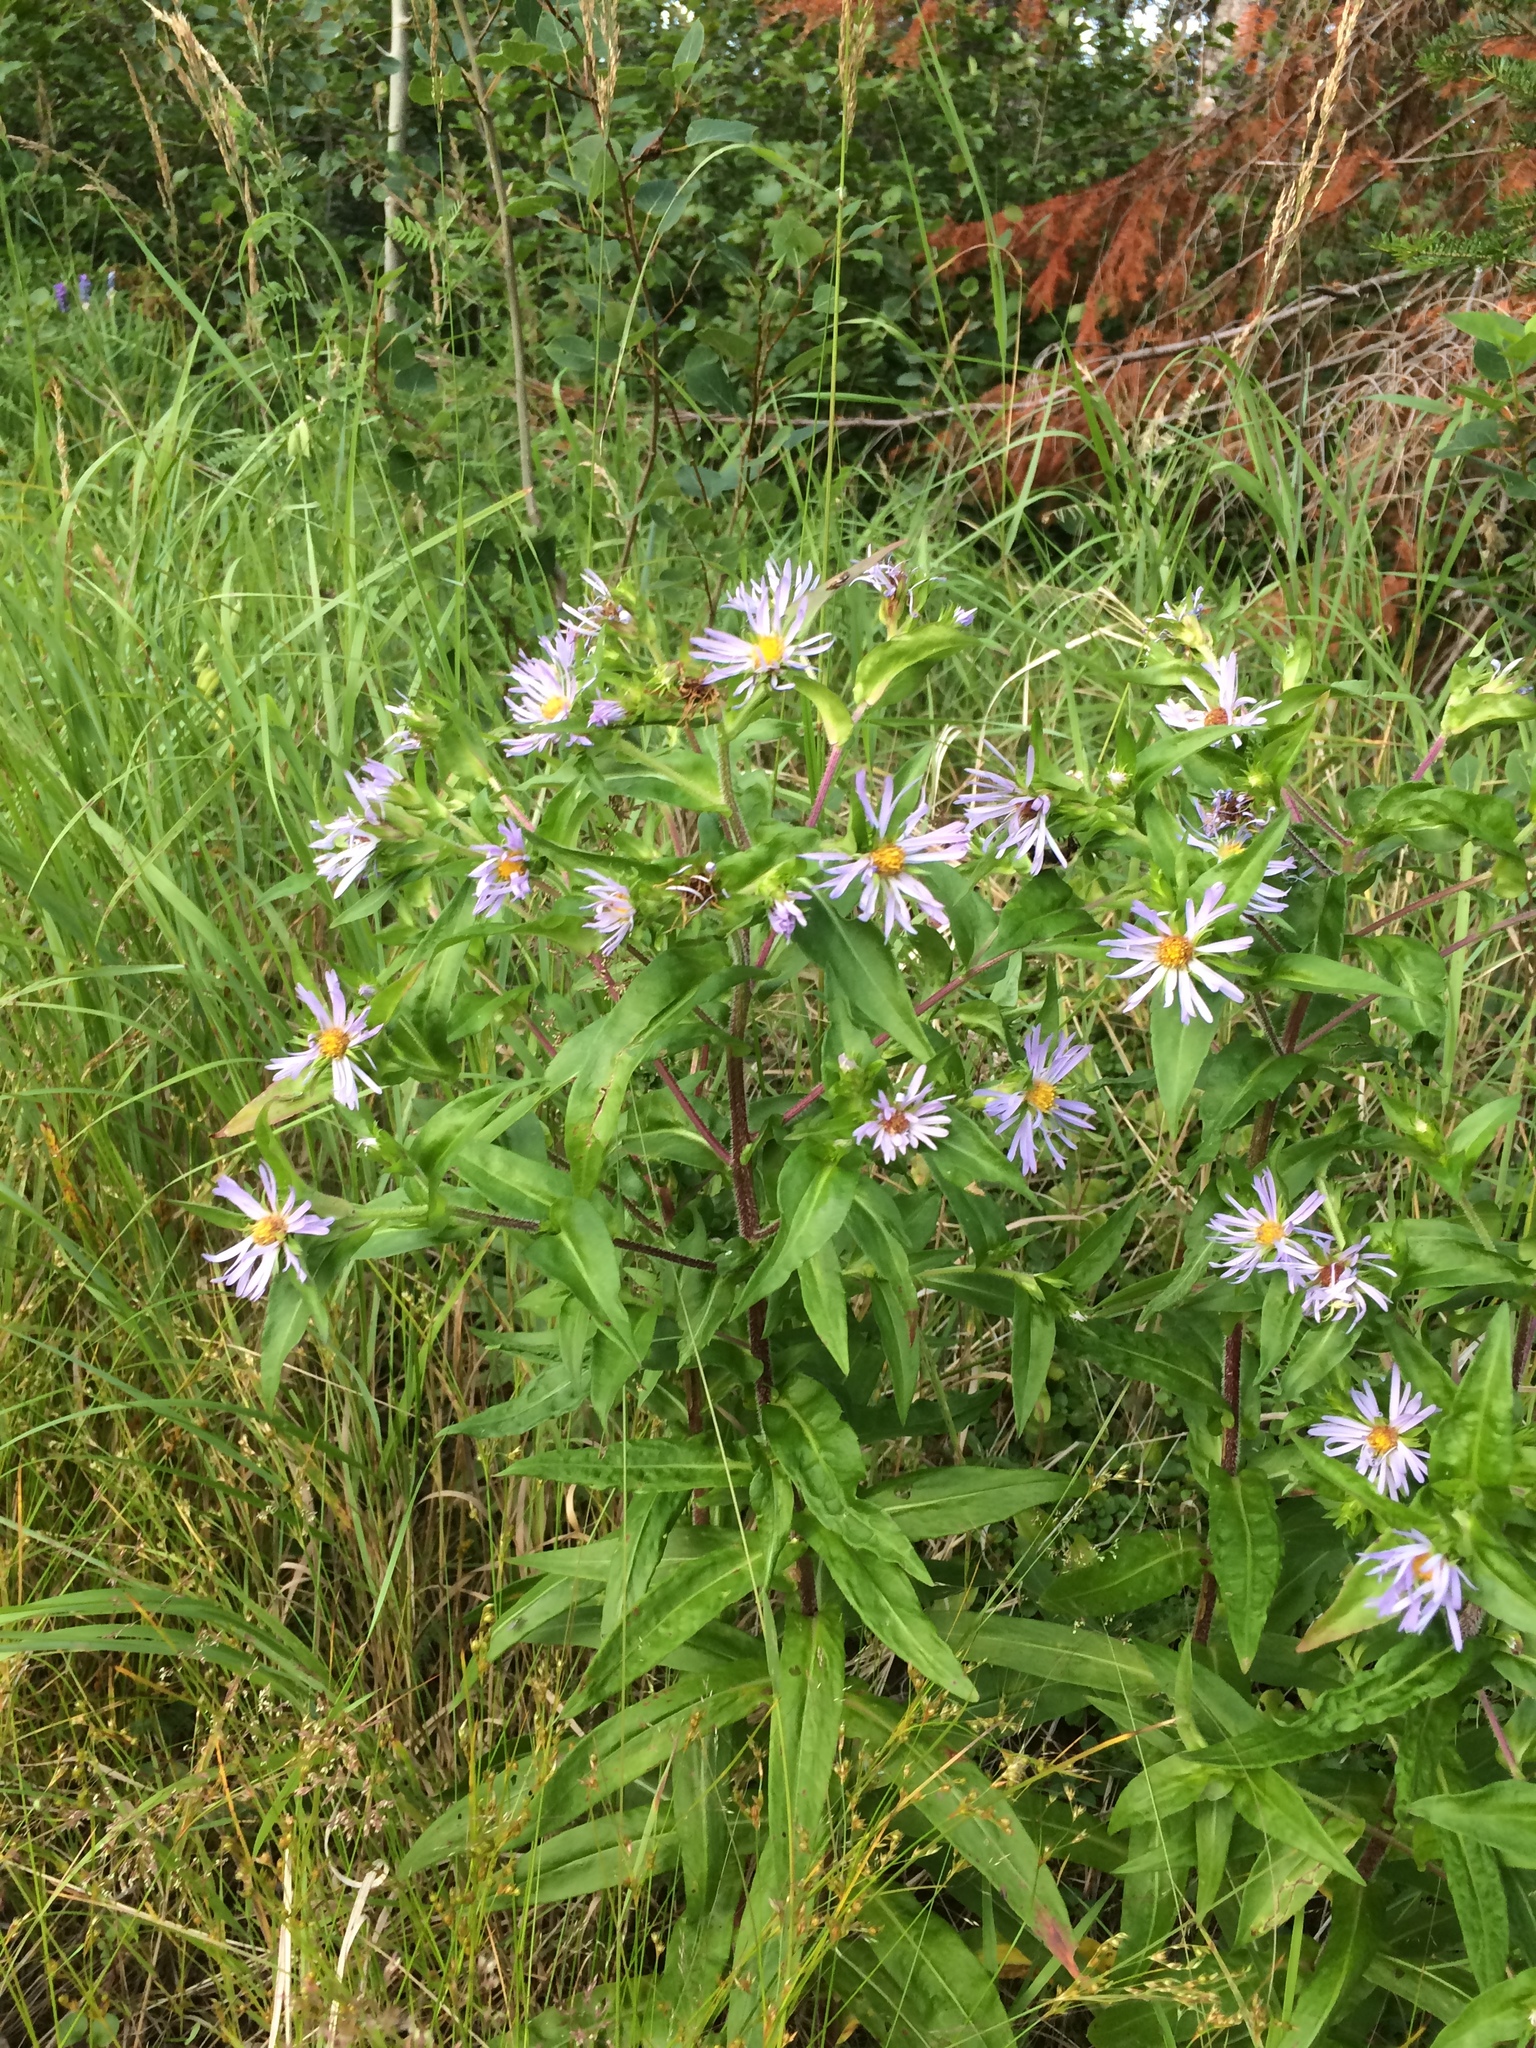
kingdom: Plantae
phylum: Tracheophyta
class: Magnoliopsida
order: Asterales
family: Asteraceae
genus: Symphyotrichum
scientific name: Symphyotrichum puniceum
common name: Bog aster
